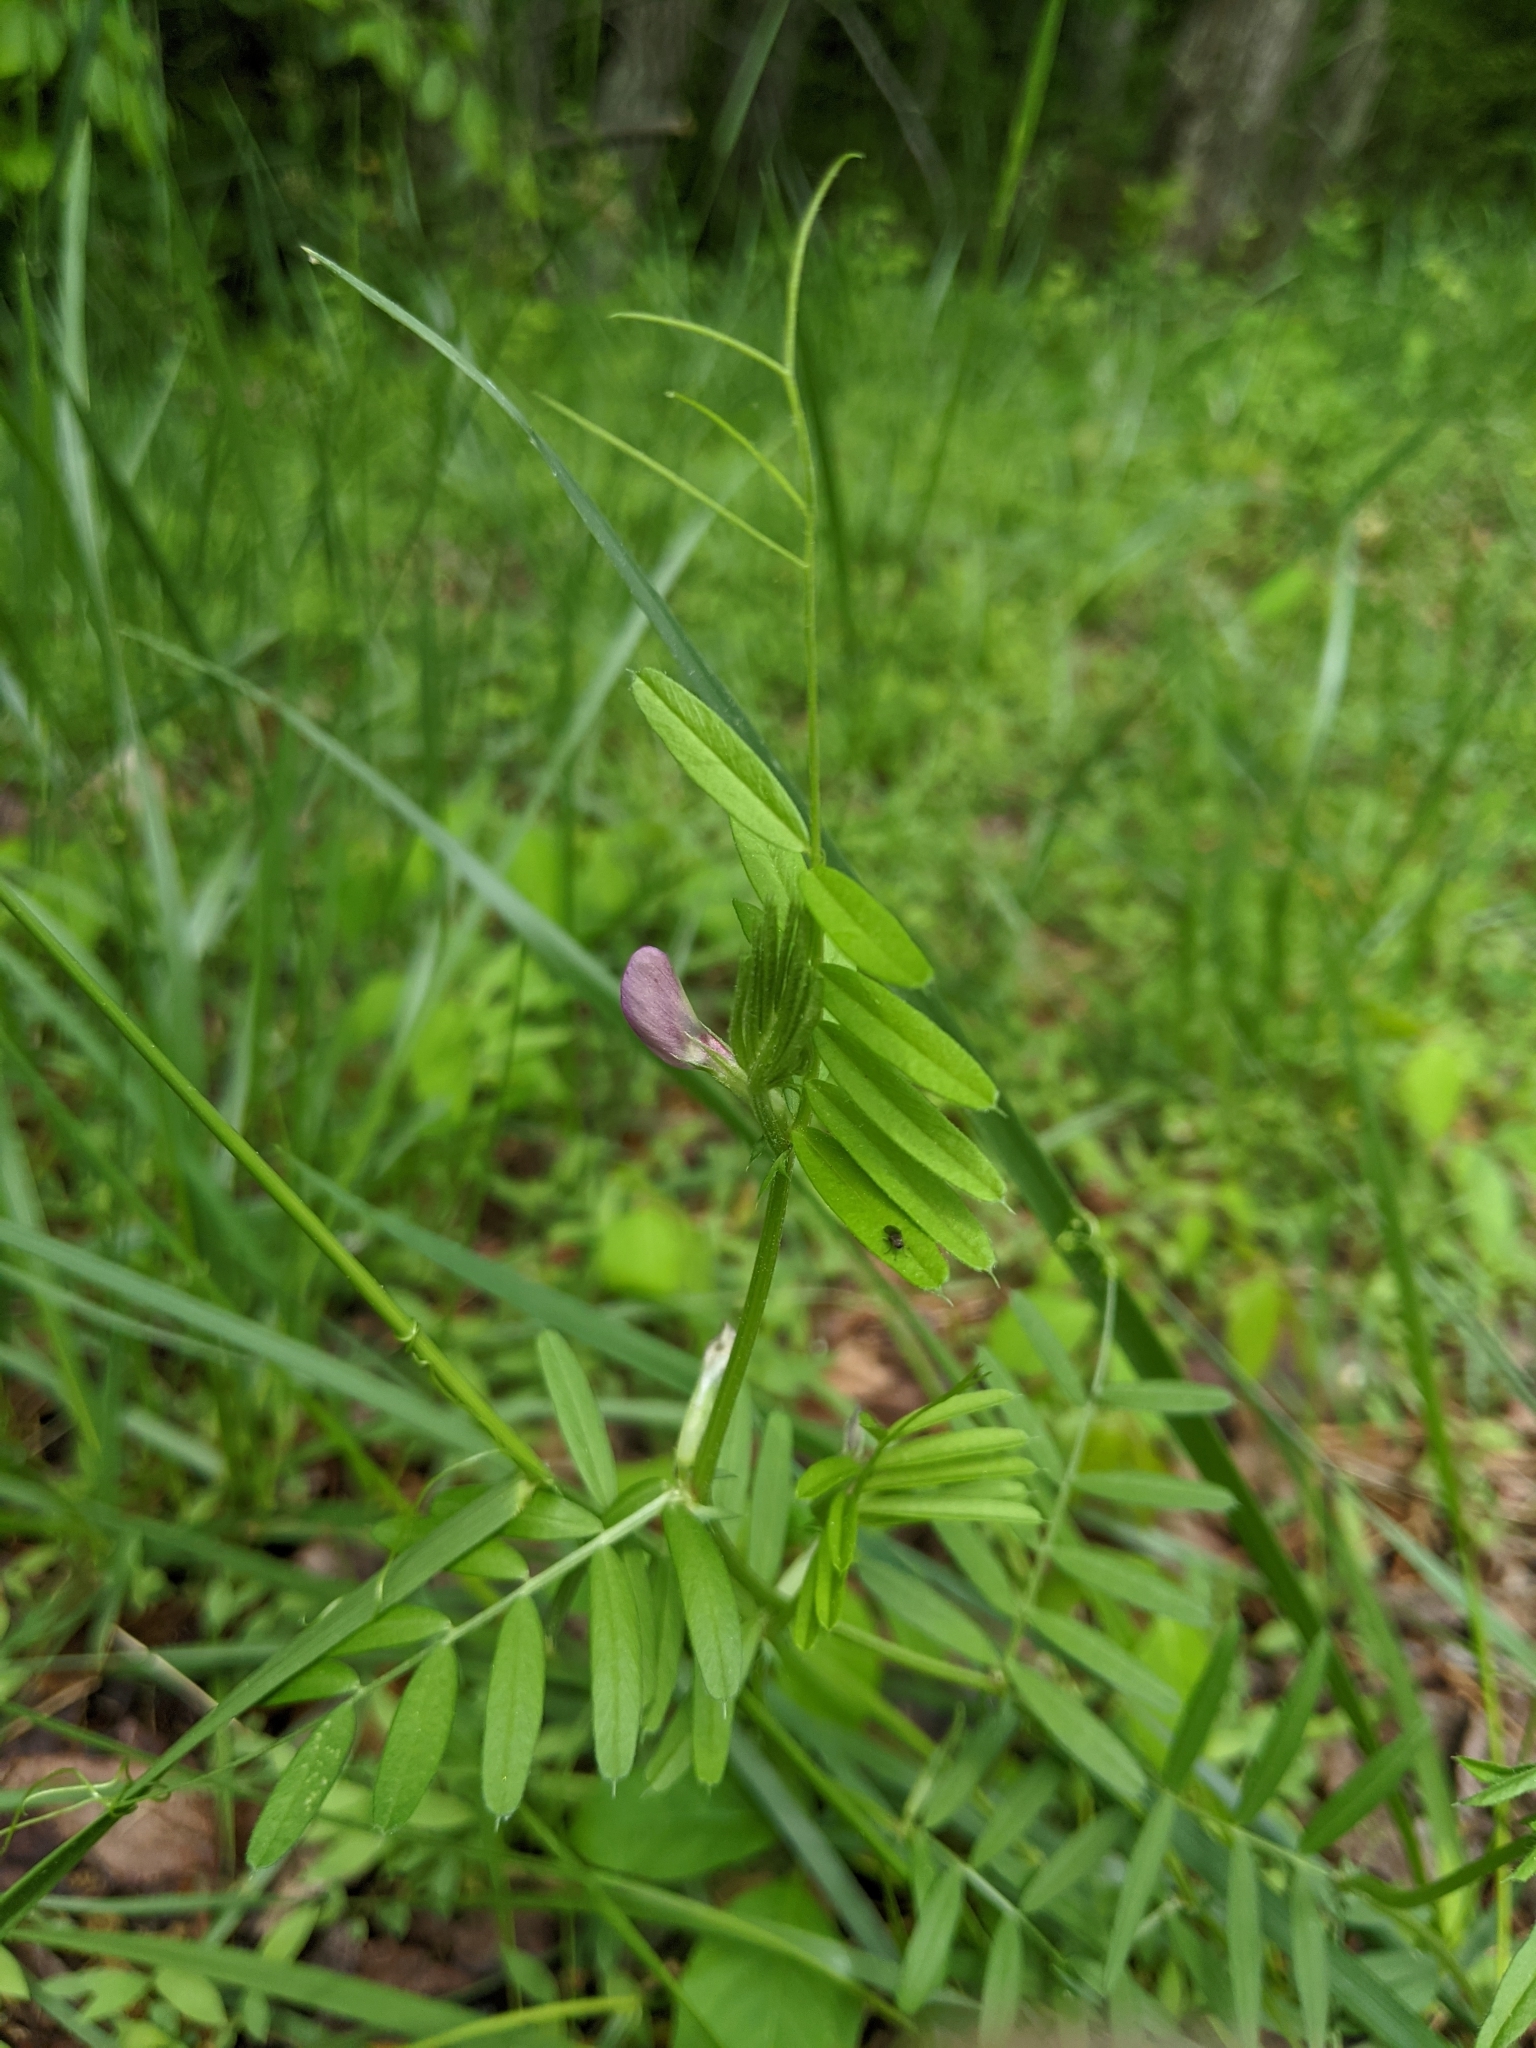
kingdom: Plantae
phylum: Tracheophyta
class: Magnoliopsida
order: Fabales
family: Fabaceae
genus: Vicia
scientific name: Vicia sativa
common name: Garden vetch
